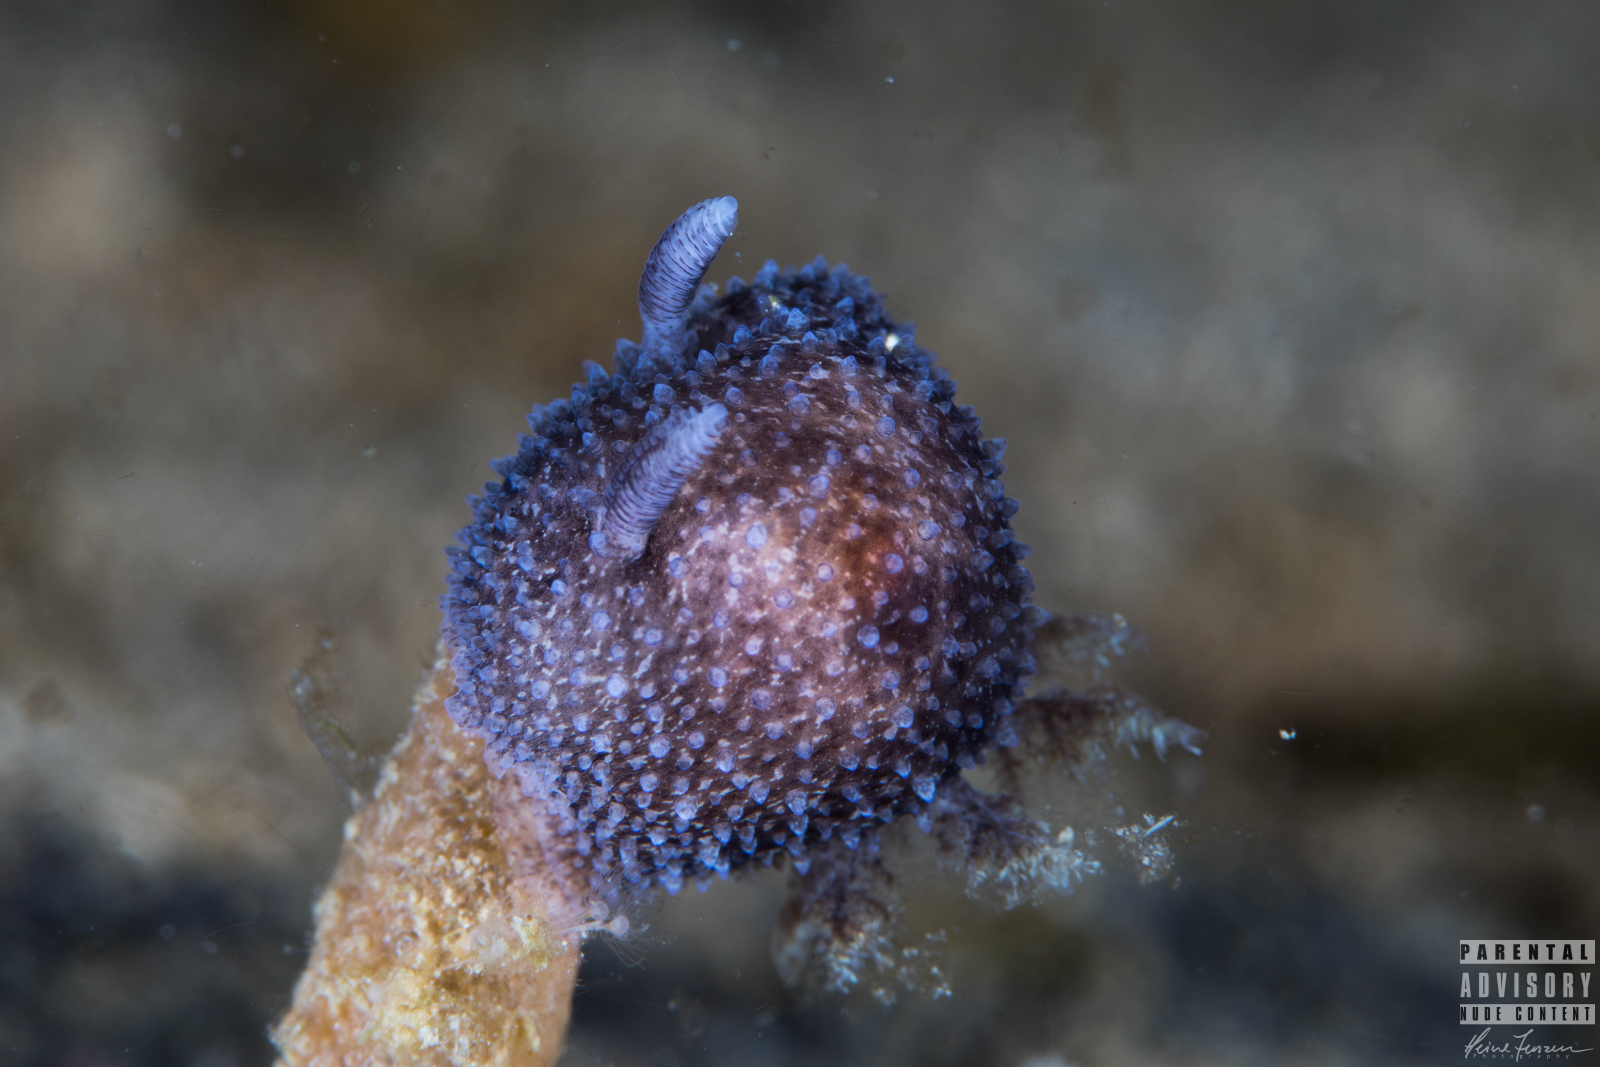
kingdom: Animalia
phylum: Mollusca
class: Gastropoda
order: Nudibranchia
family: Onchidorididae
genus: Acanthodoris
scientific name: Acanthodoris pilosa
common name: Hairy spiny doris
